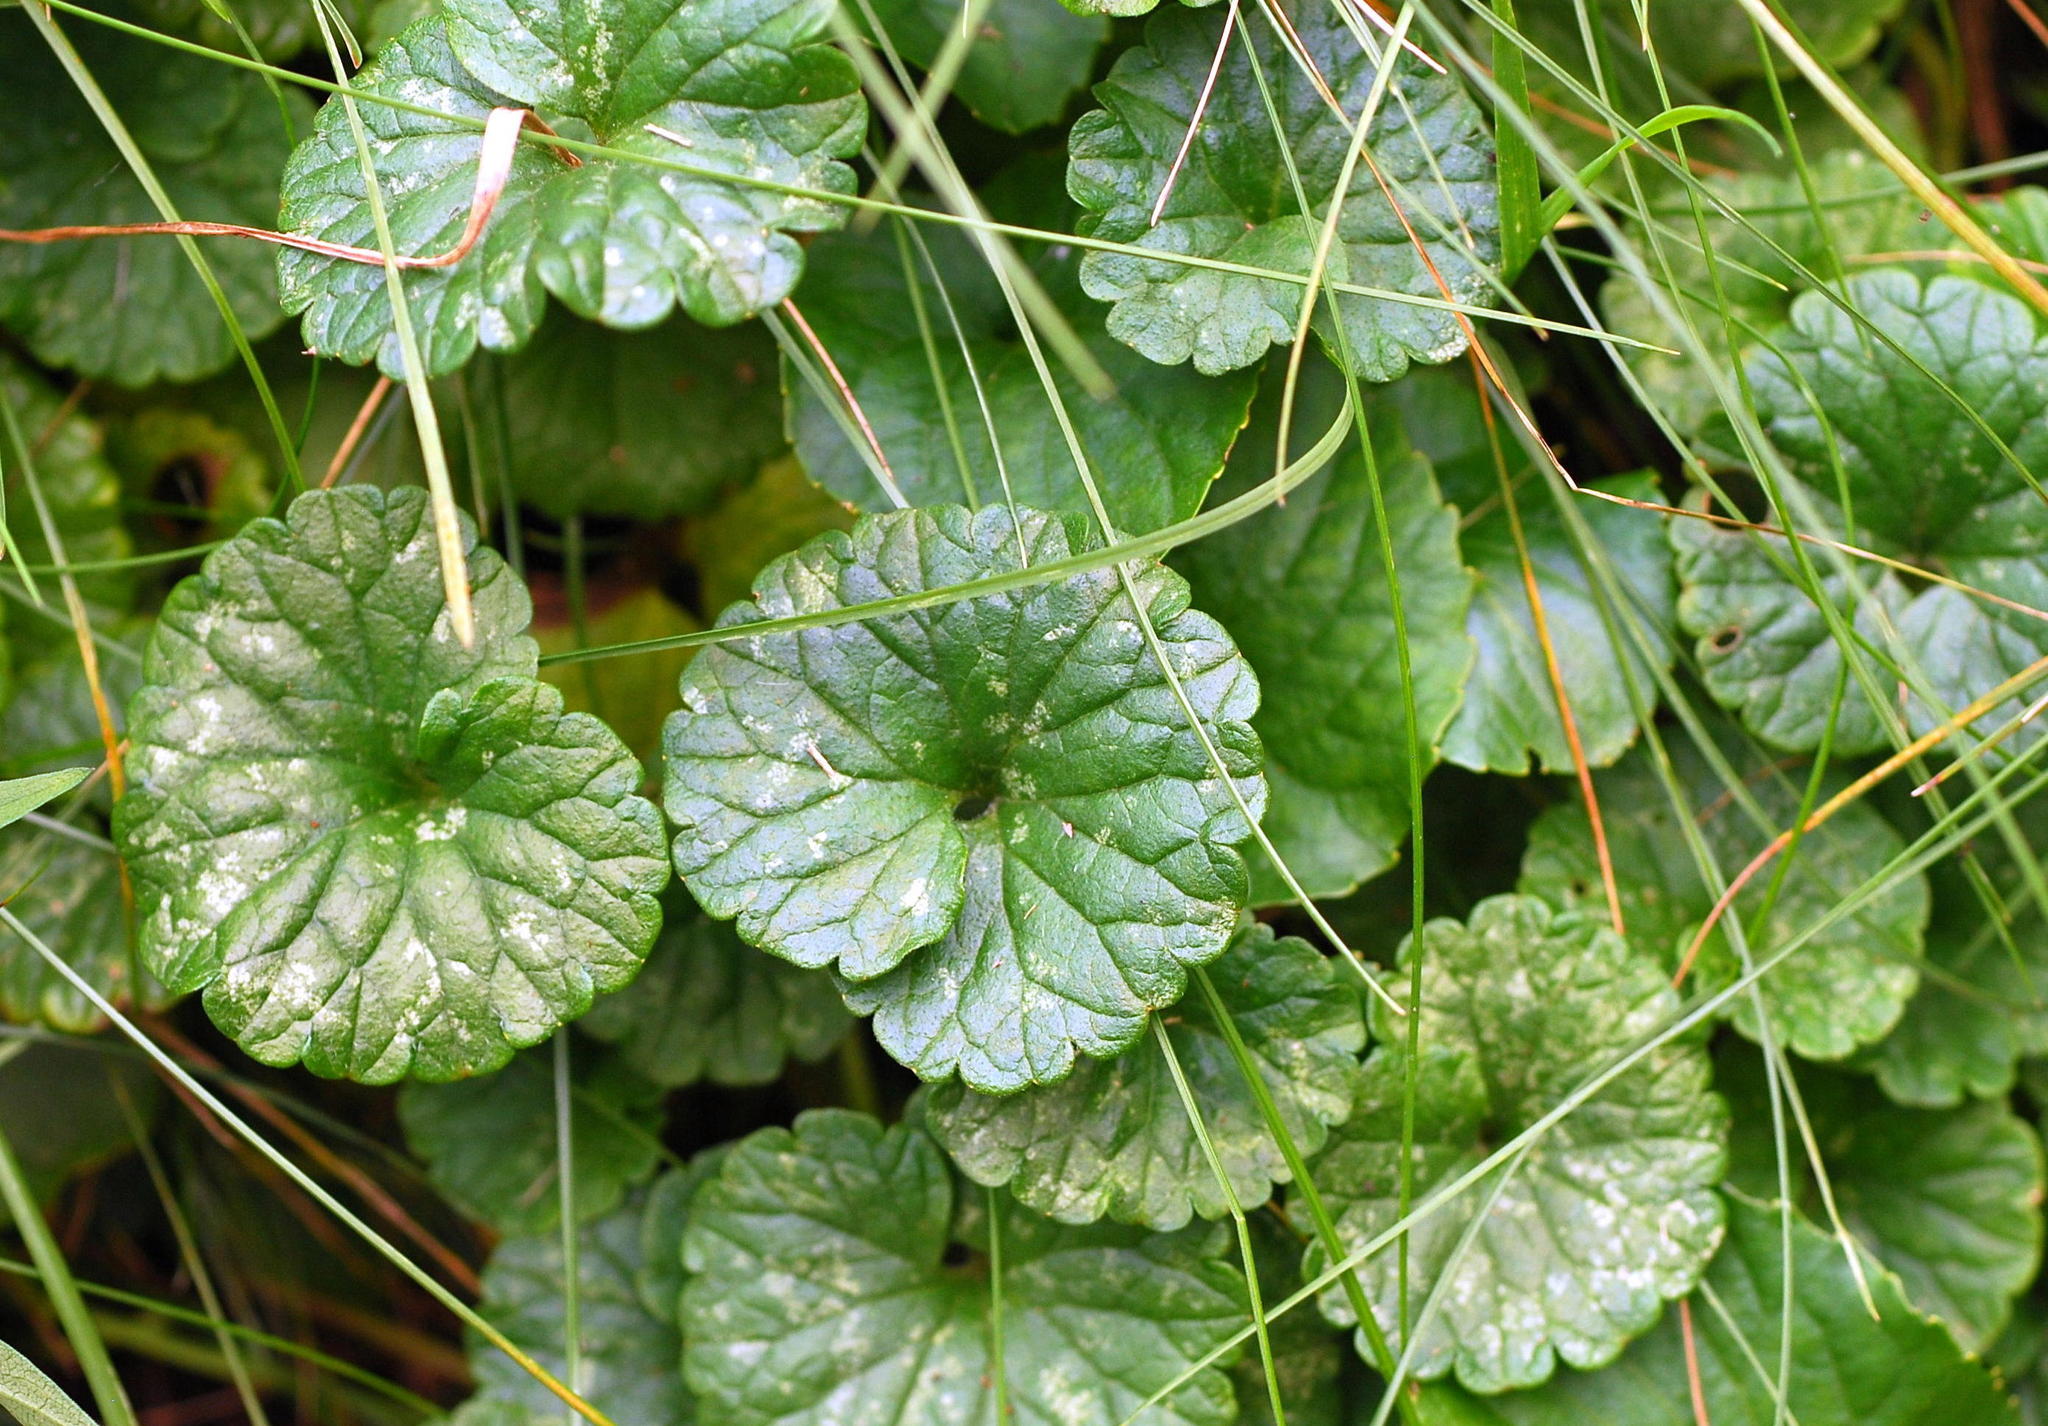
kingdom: Plantae
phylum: Tracheophyta
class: Magnoliopsida
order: Lamiales
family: Lamiaceae
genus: Glechoma
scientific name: Glechoma hederacea
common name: Ground ivy
